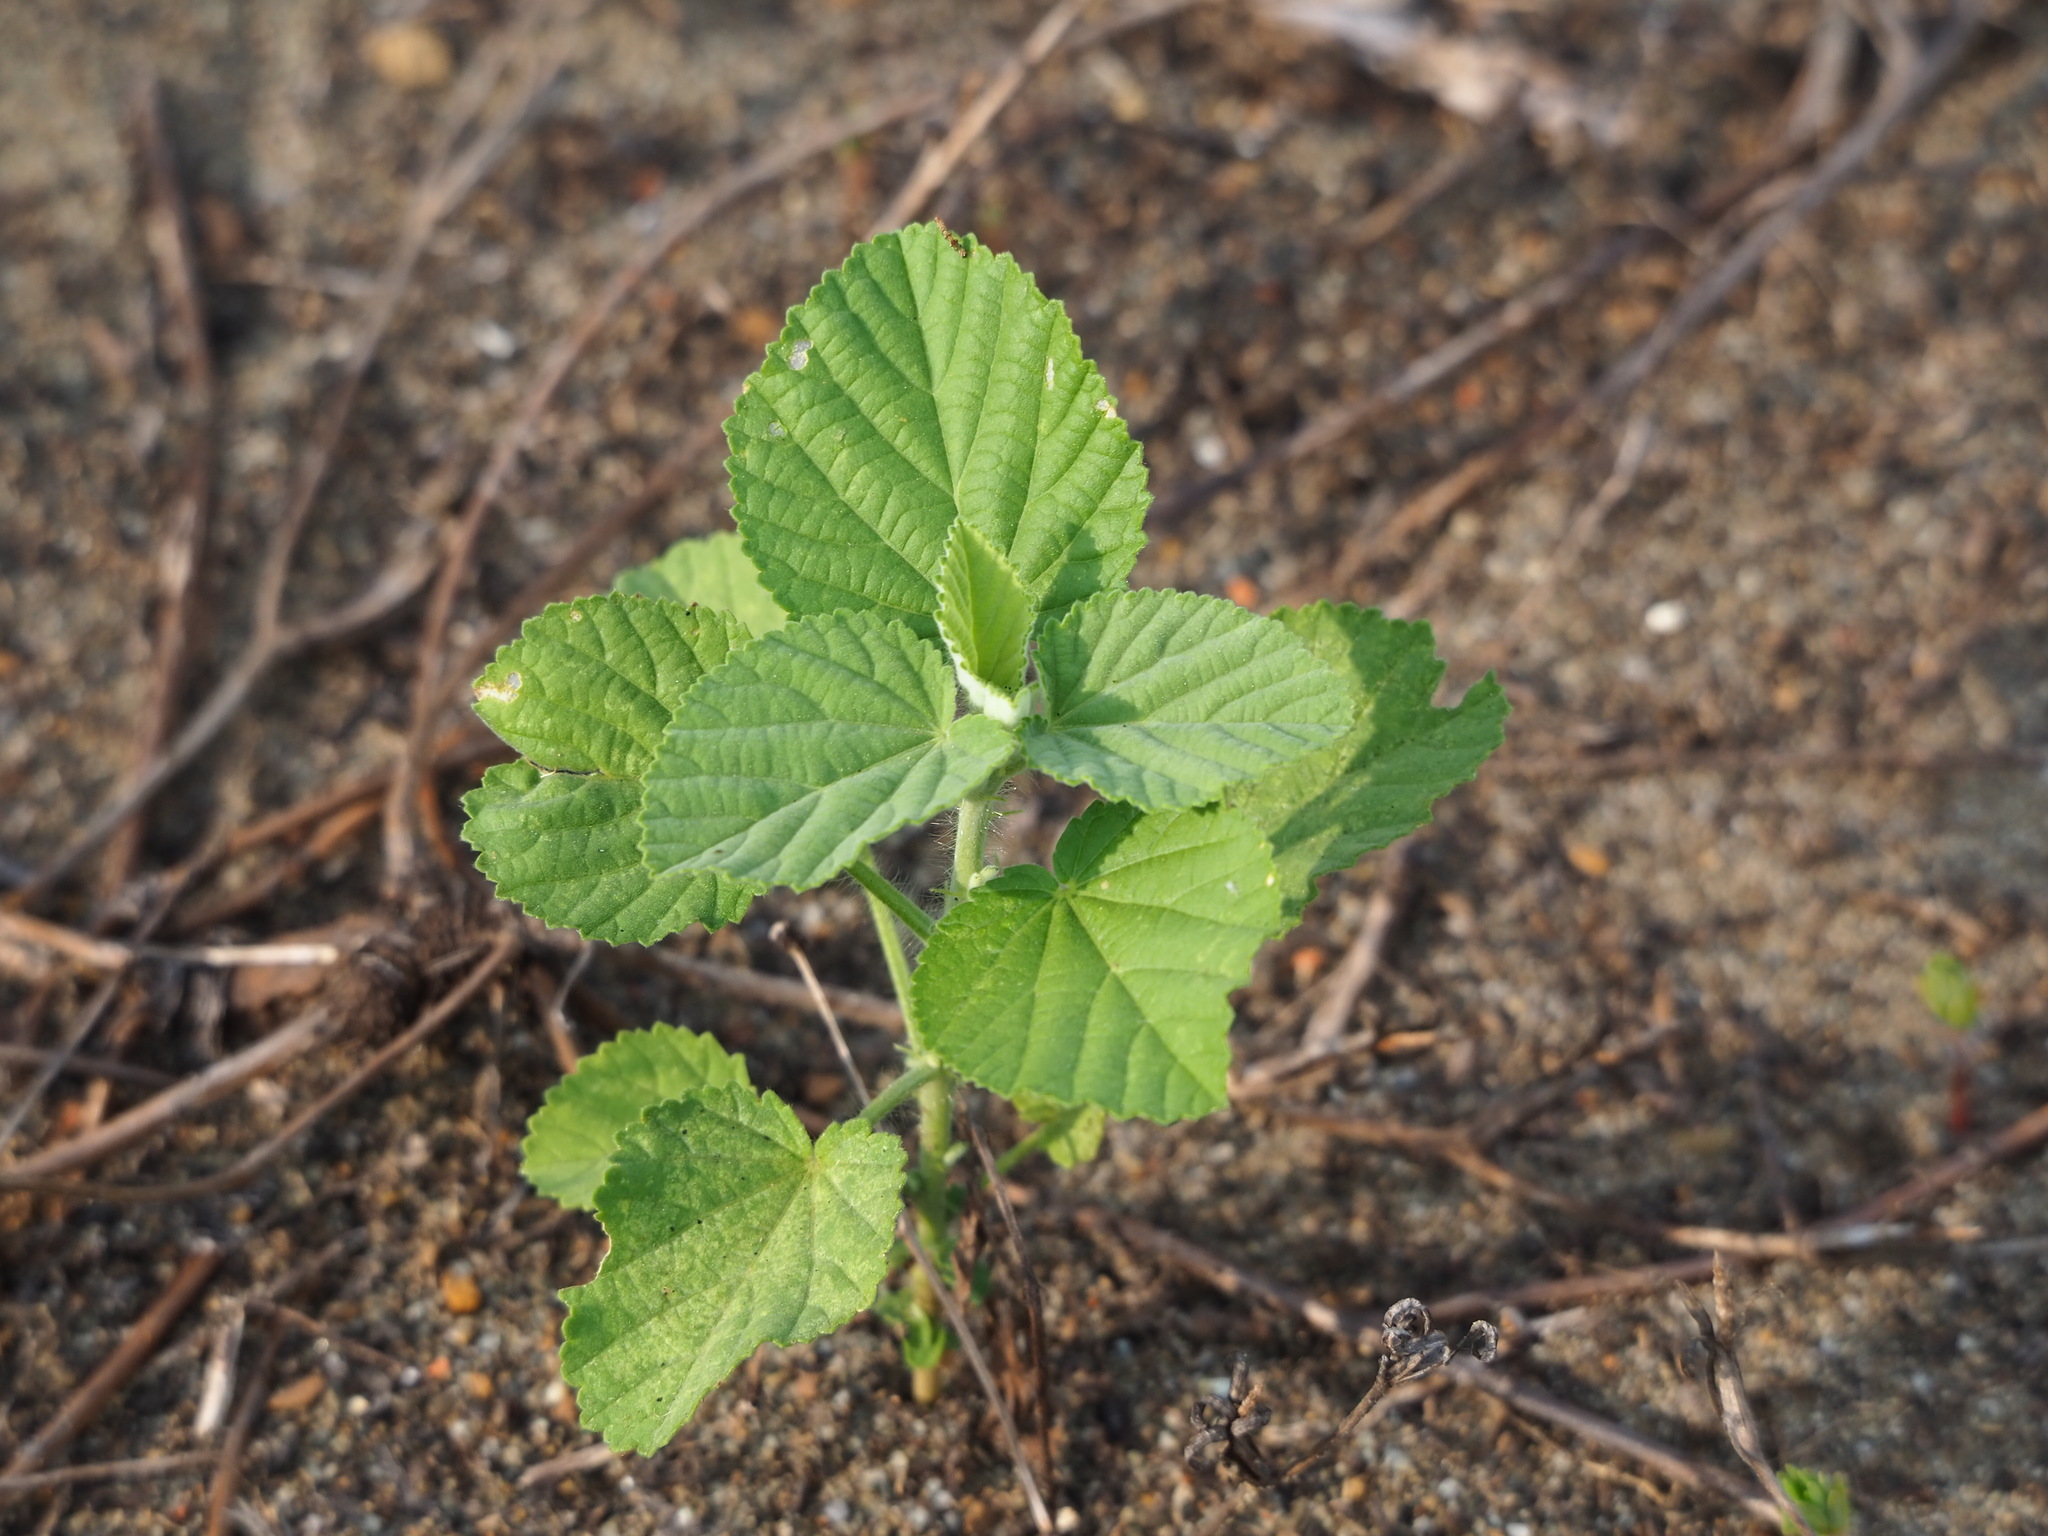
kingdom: Plantae
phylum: Tracheophyta
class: Magnoliopsida
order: Malvales
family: Malvaceae
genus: Sida
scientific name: Sida cordifolia
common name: Ilima
